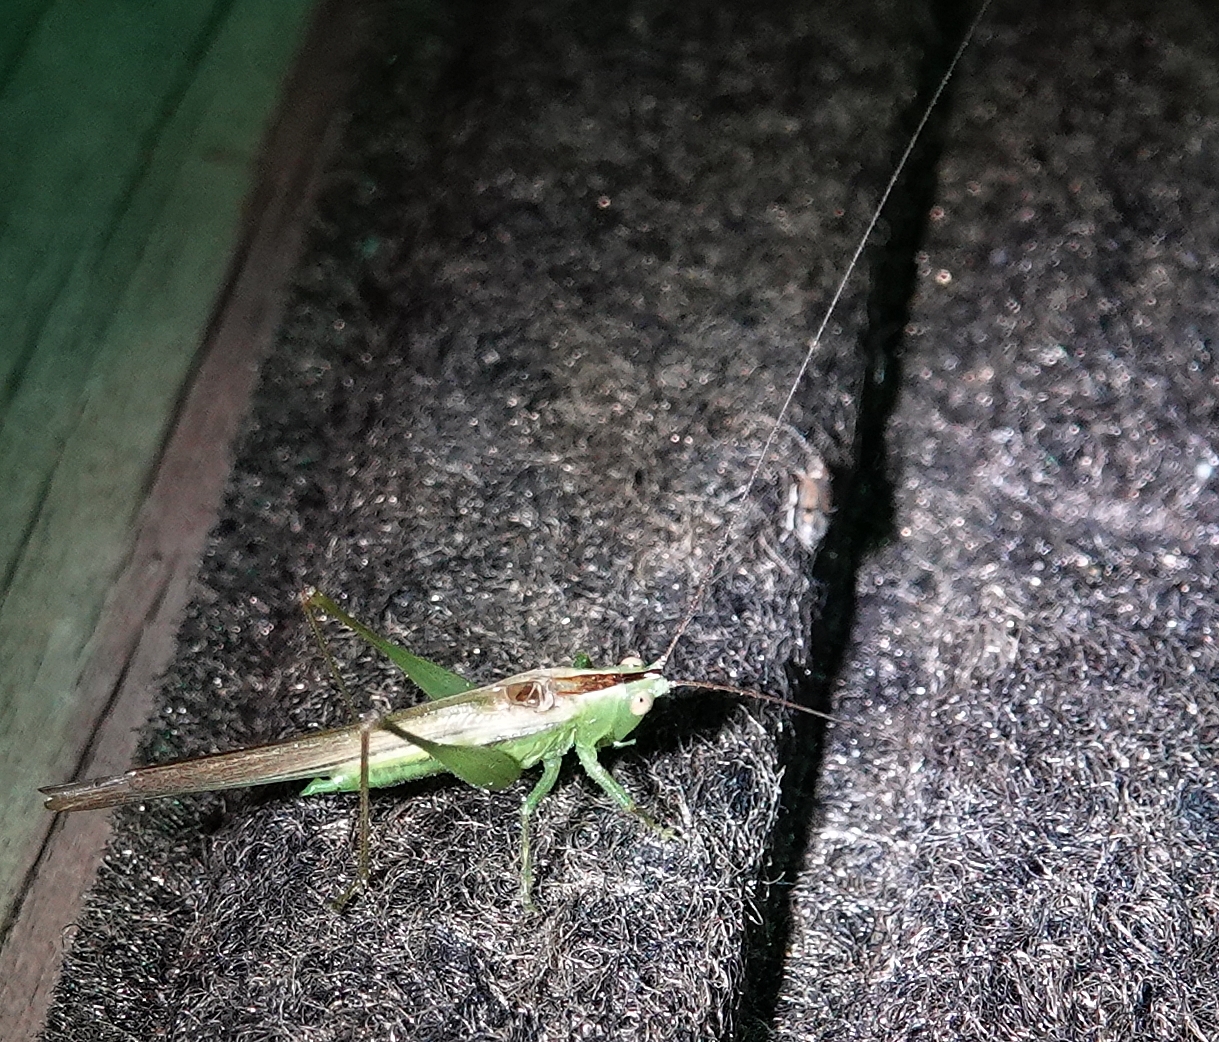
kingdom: Animalia
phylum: Arthropoda
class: Insecta
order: Orthoptera
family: Tettigoniidae
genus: Conocephalus
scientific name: Conocephalus fasciatus
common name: Slender meadow katydid
